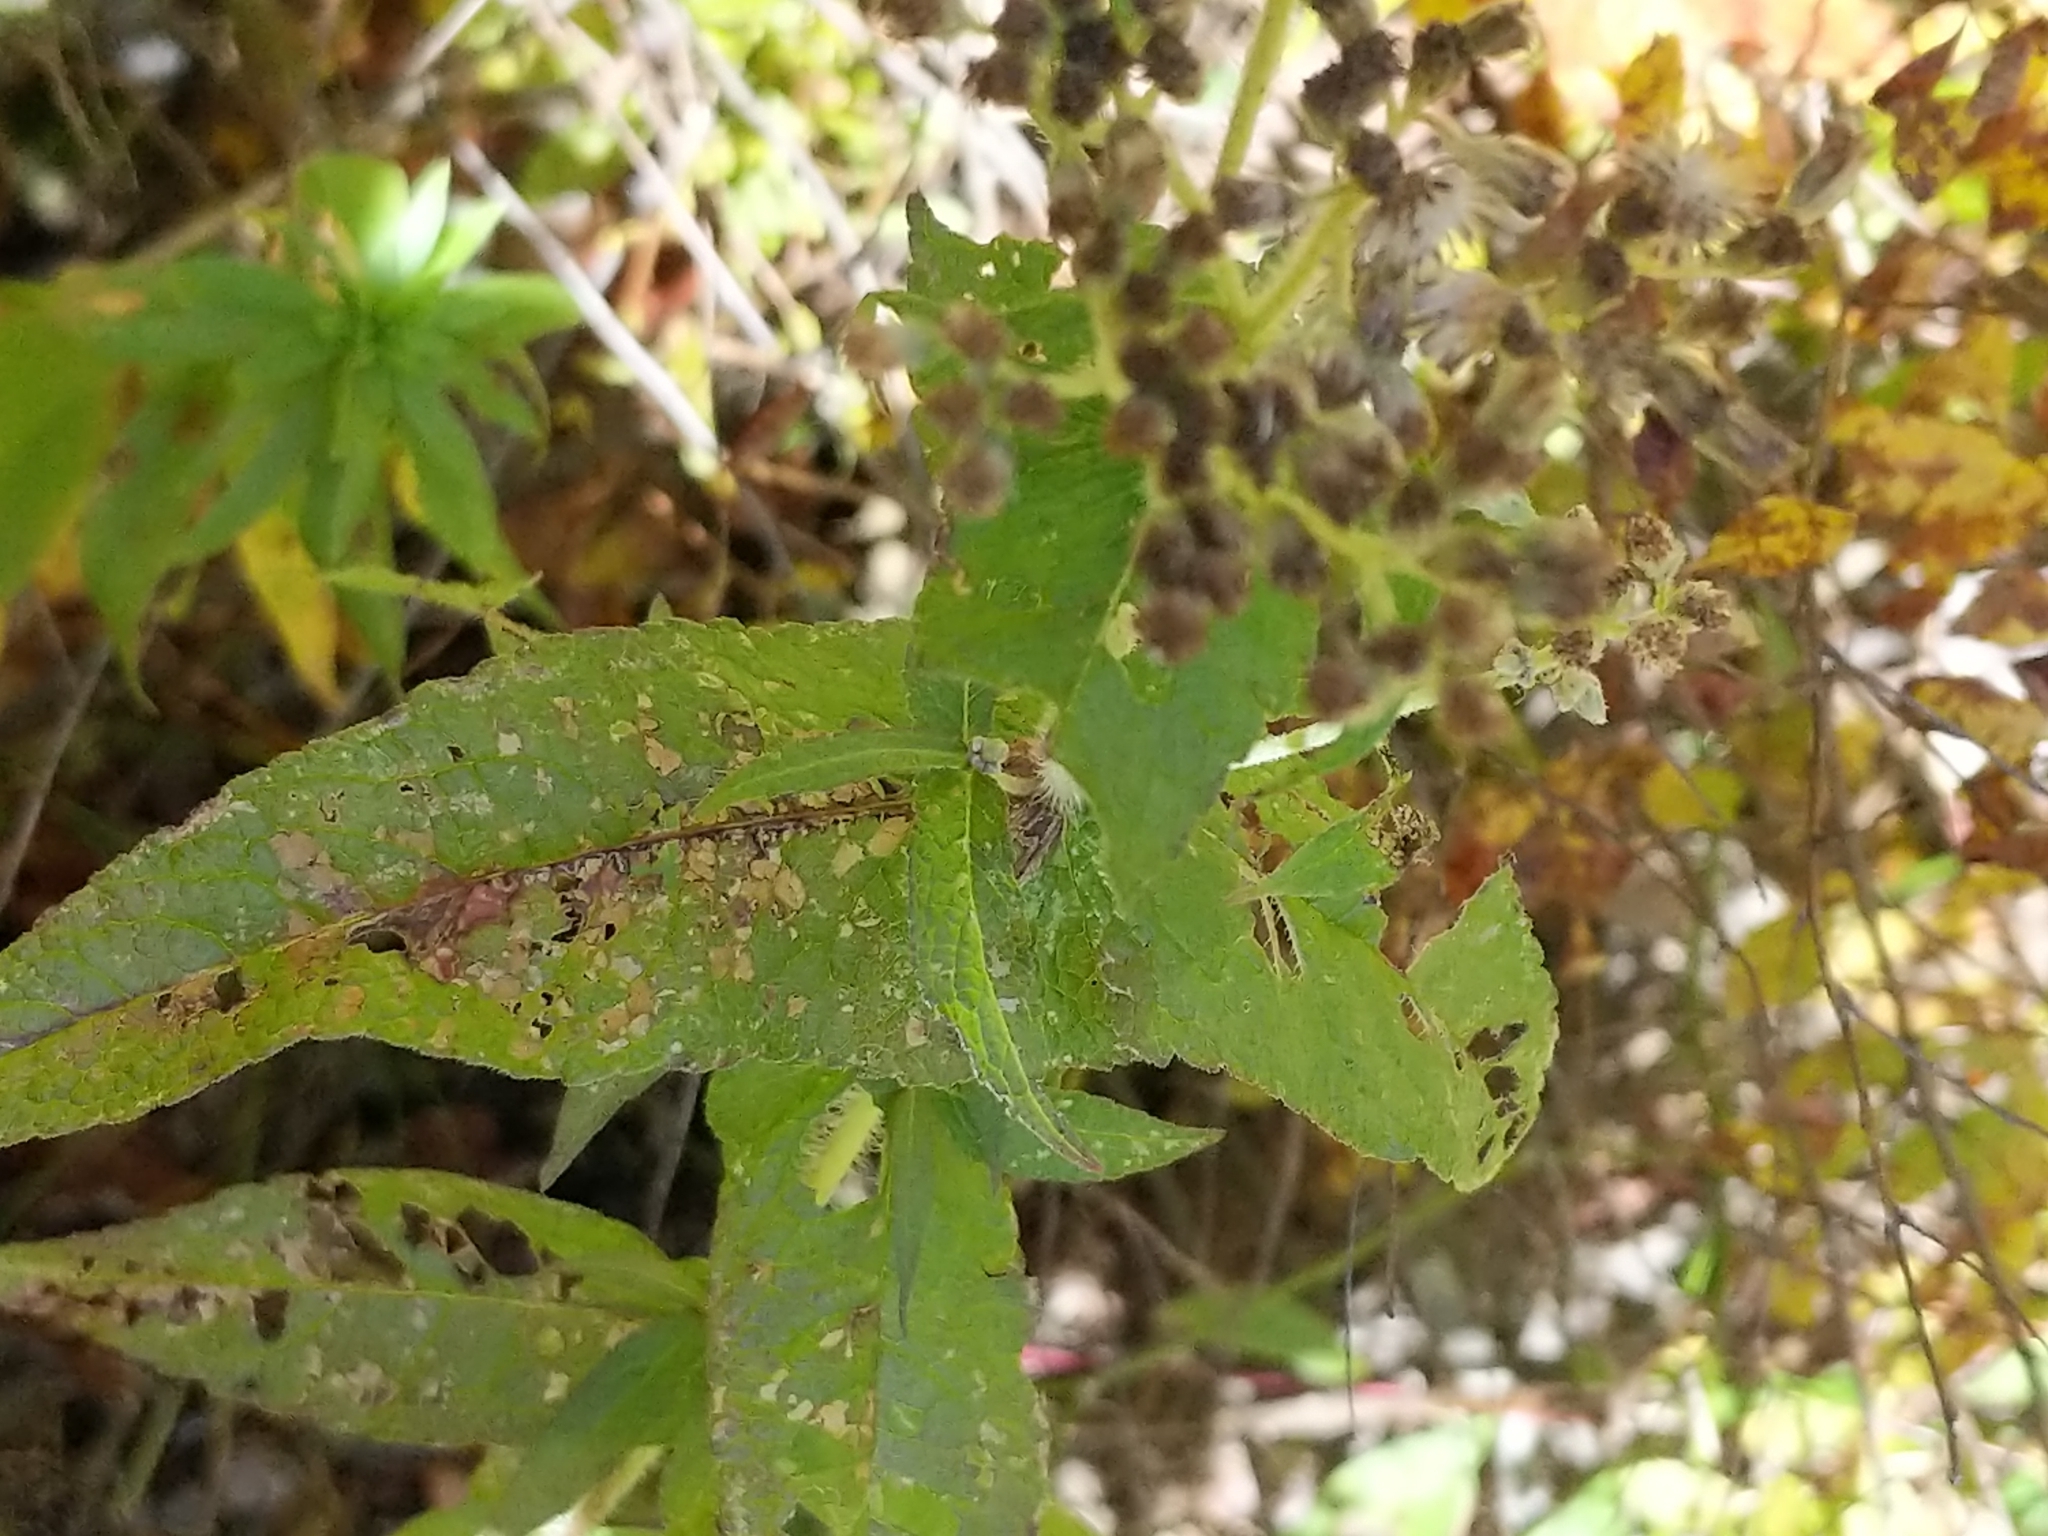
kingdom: Plantae
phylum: Tracheophyta
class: Magnoliopsida
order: Asterales
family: Asteraceae
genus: Eupatorium
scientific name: Eupatorium perfoliatum
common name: Boneset
